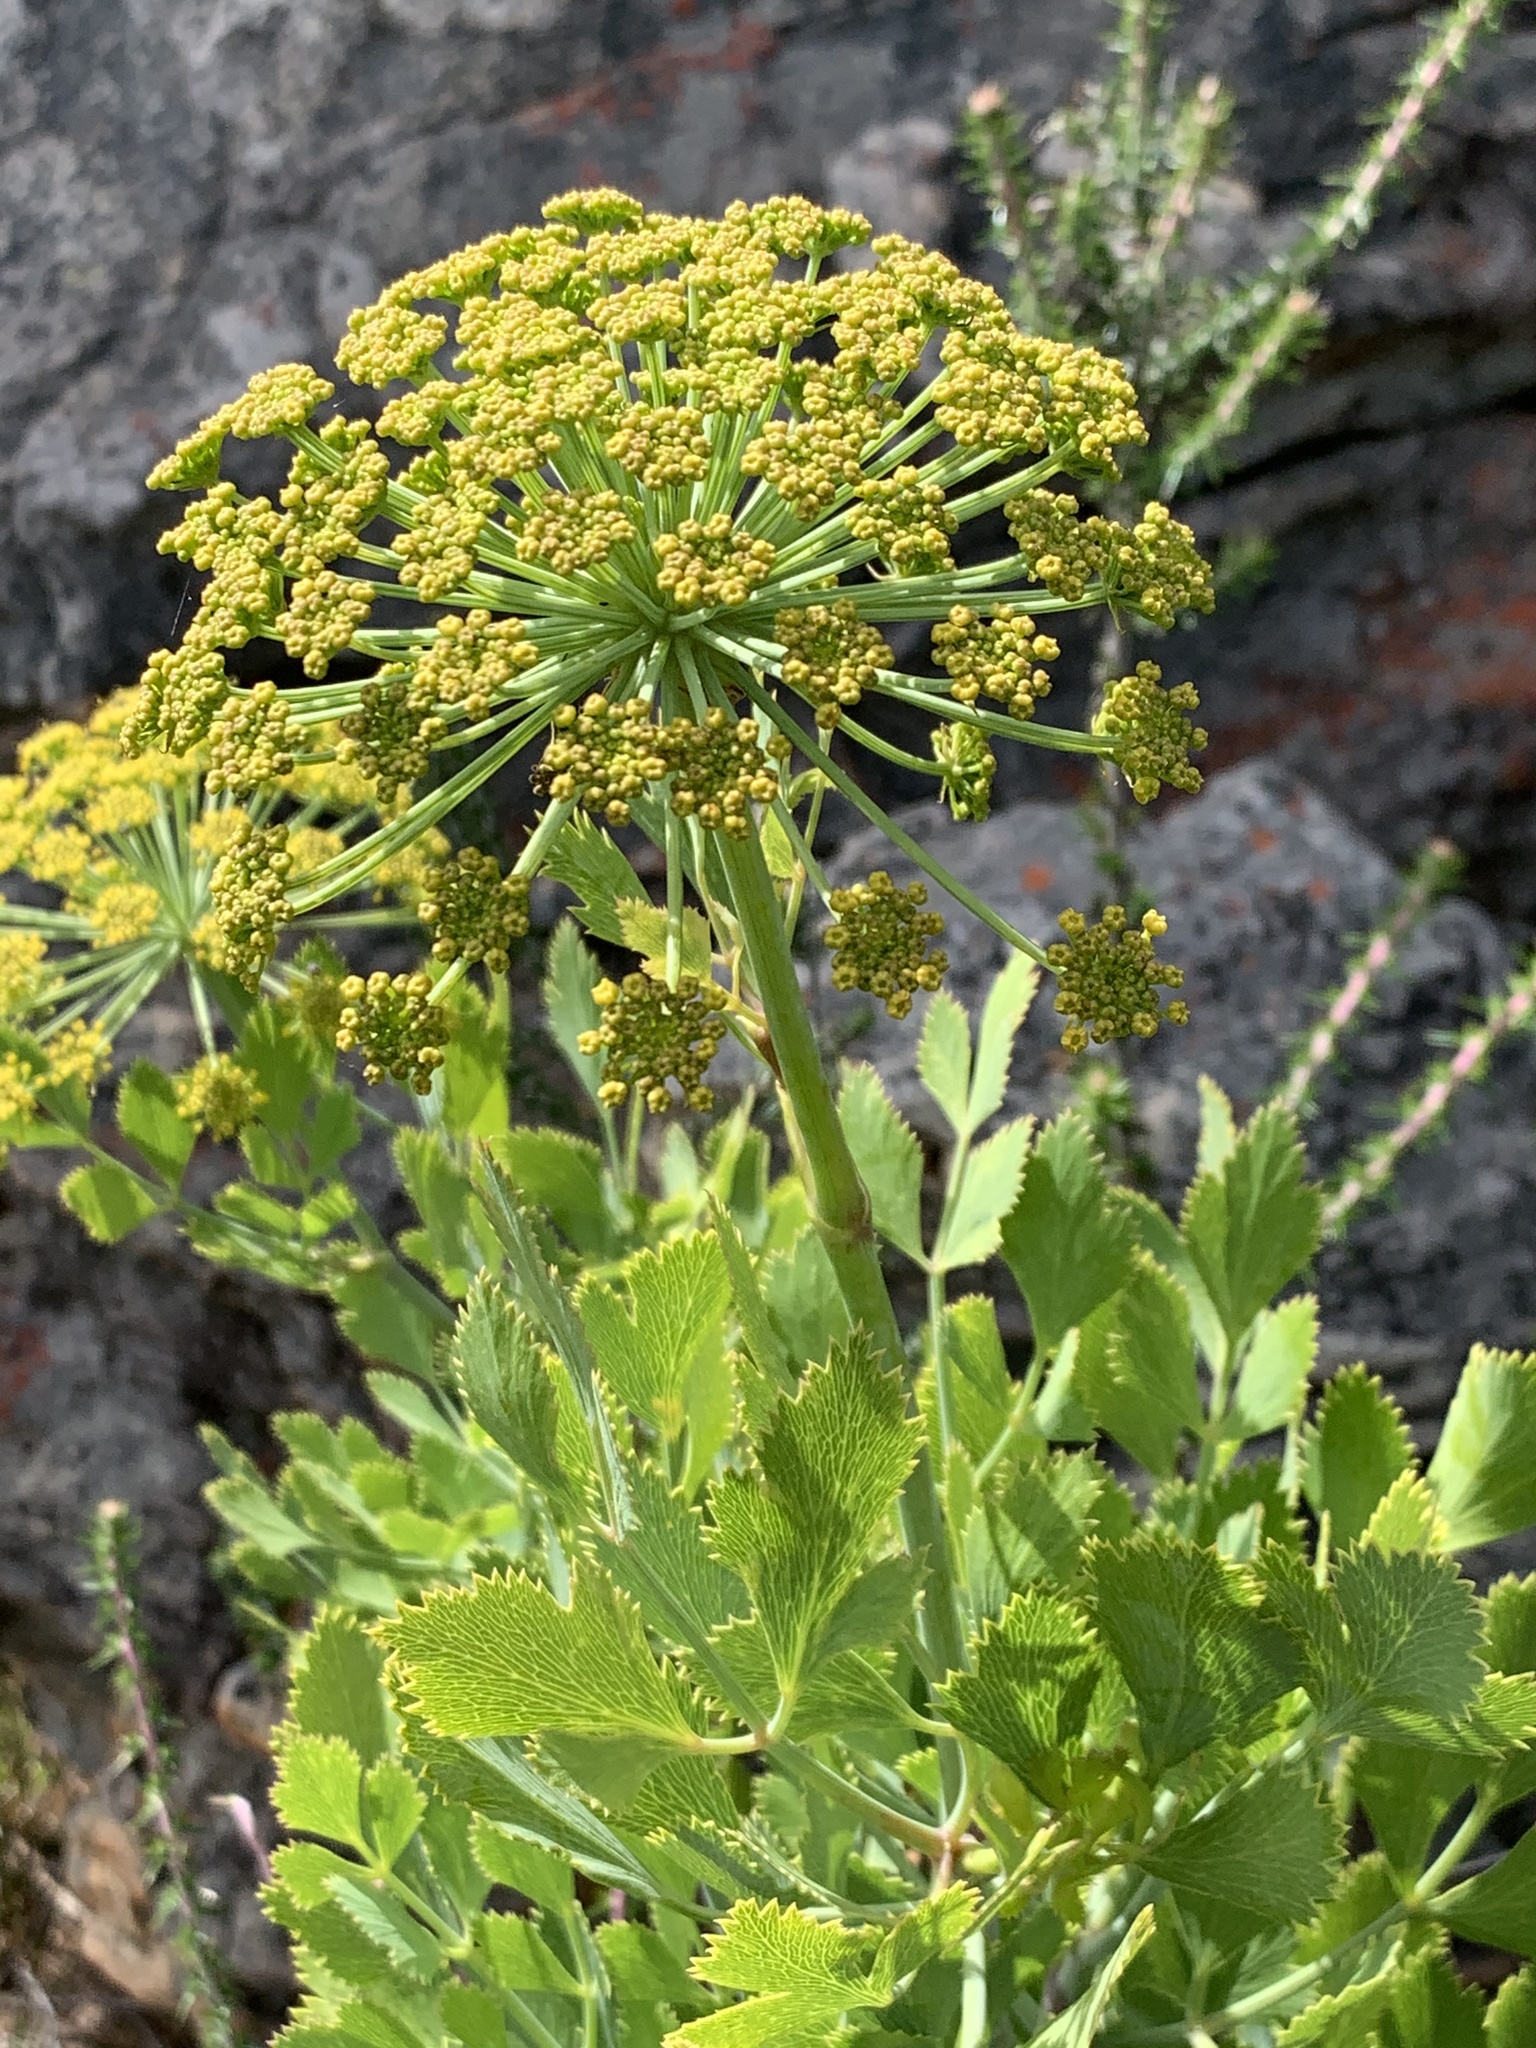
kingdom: Plantae
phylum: Tracheophyta
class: Magnoliopsida
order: Apiales
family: Apiaceae
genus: Notobubon
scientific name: Notobubon galbanum
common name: Blisterbush
